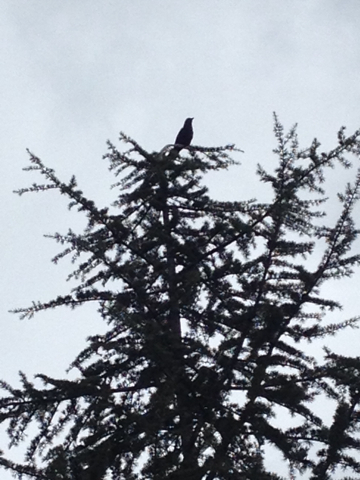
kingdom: Animalia
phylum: Chordata
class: Aves
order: Passeriformes
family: Corvidae
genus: Corvus
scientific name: Corvus brachyrhynchos
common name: American crow
